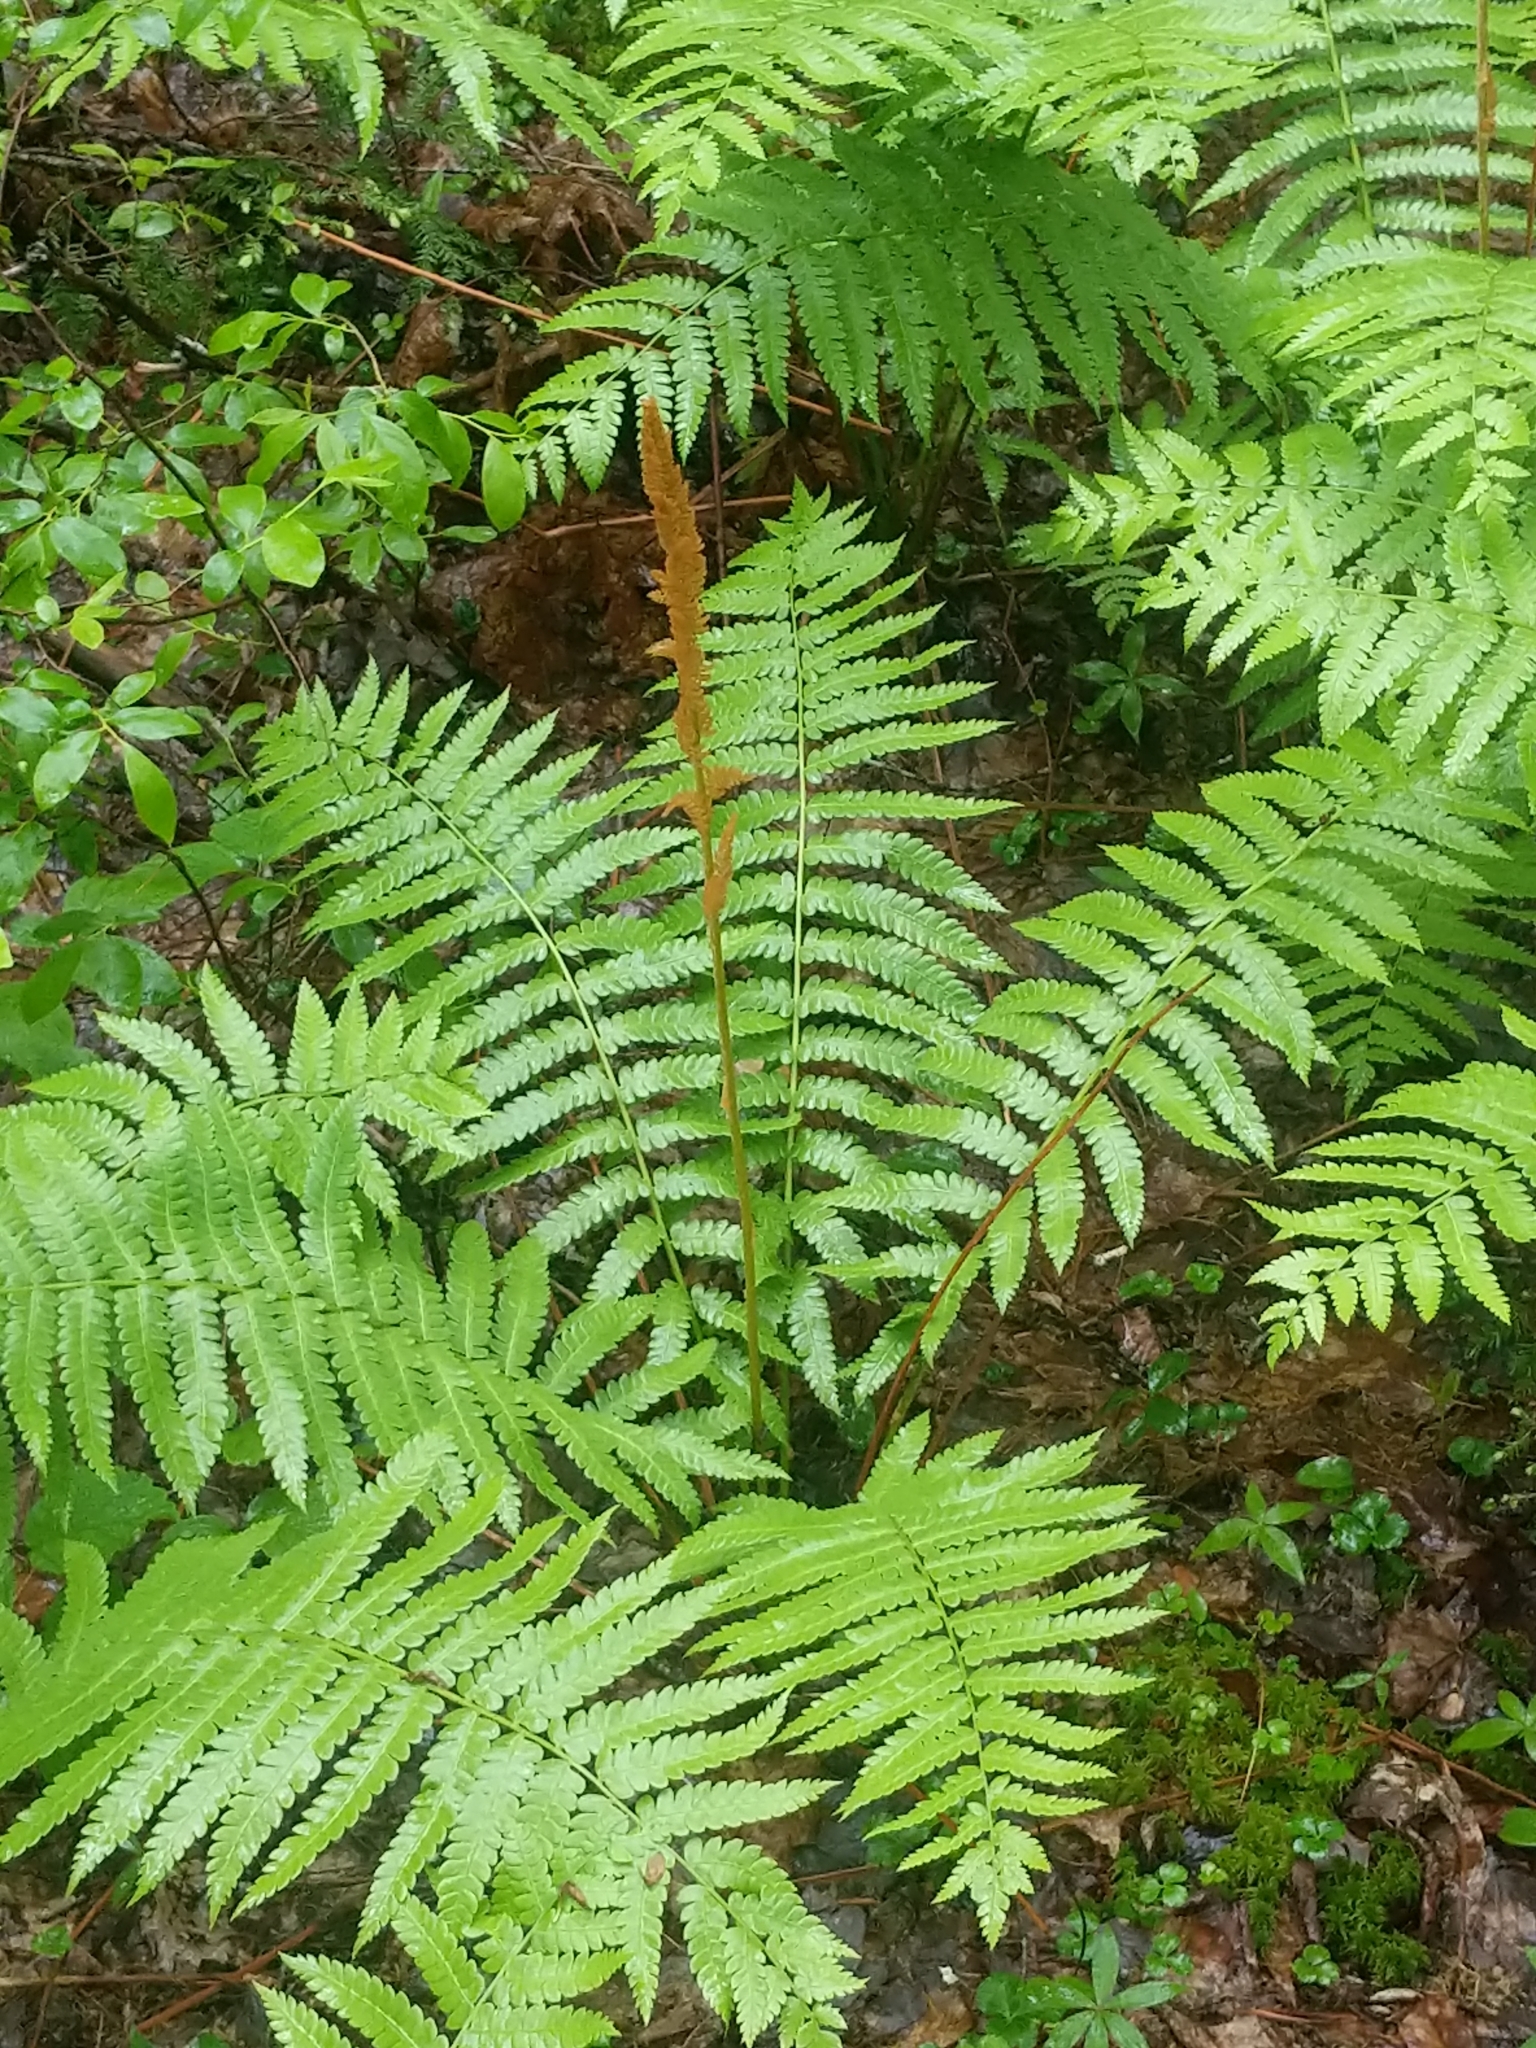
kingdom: Plantae
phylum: Tracheophyta
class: Polypodiopsida
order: Osmundales
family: Osmundaceae
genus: Osmundastrum
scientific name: Osmundastrum cinnamomeum
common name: Cinnamon fern
